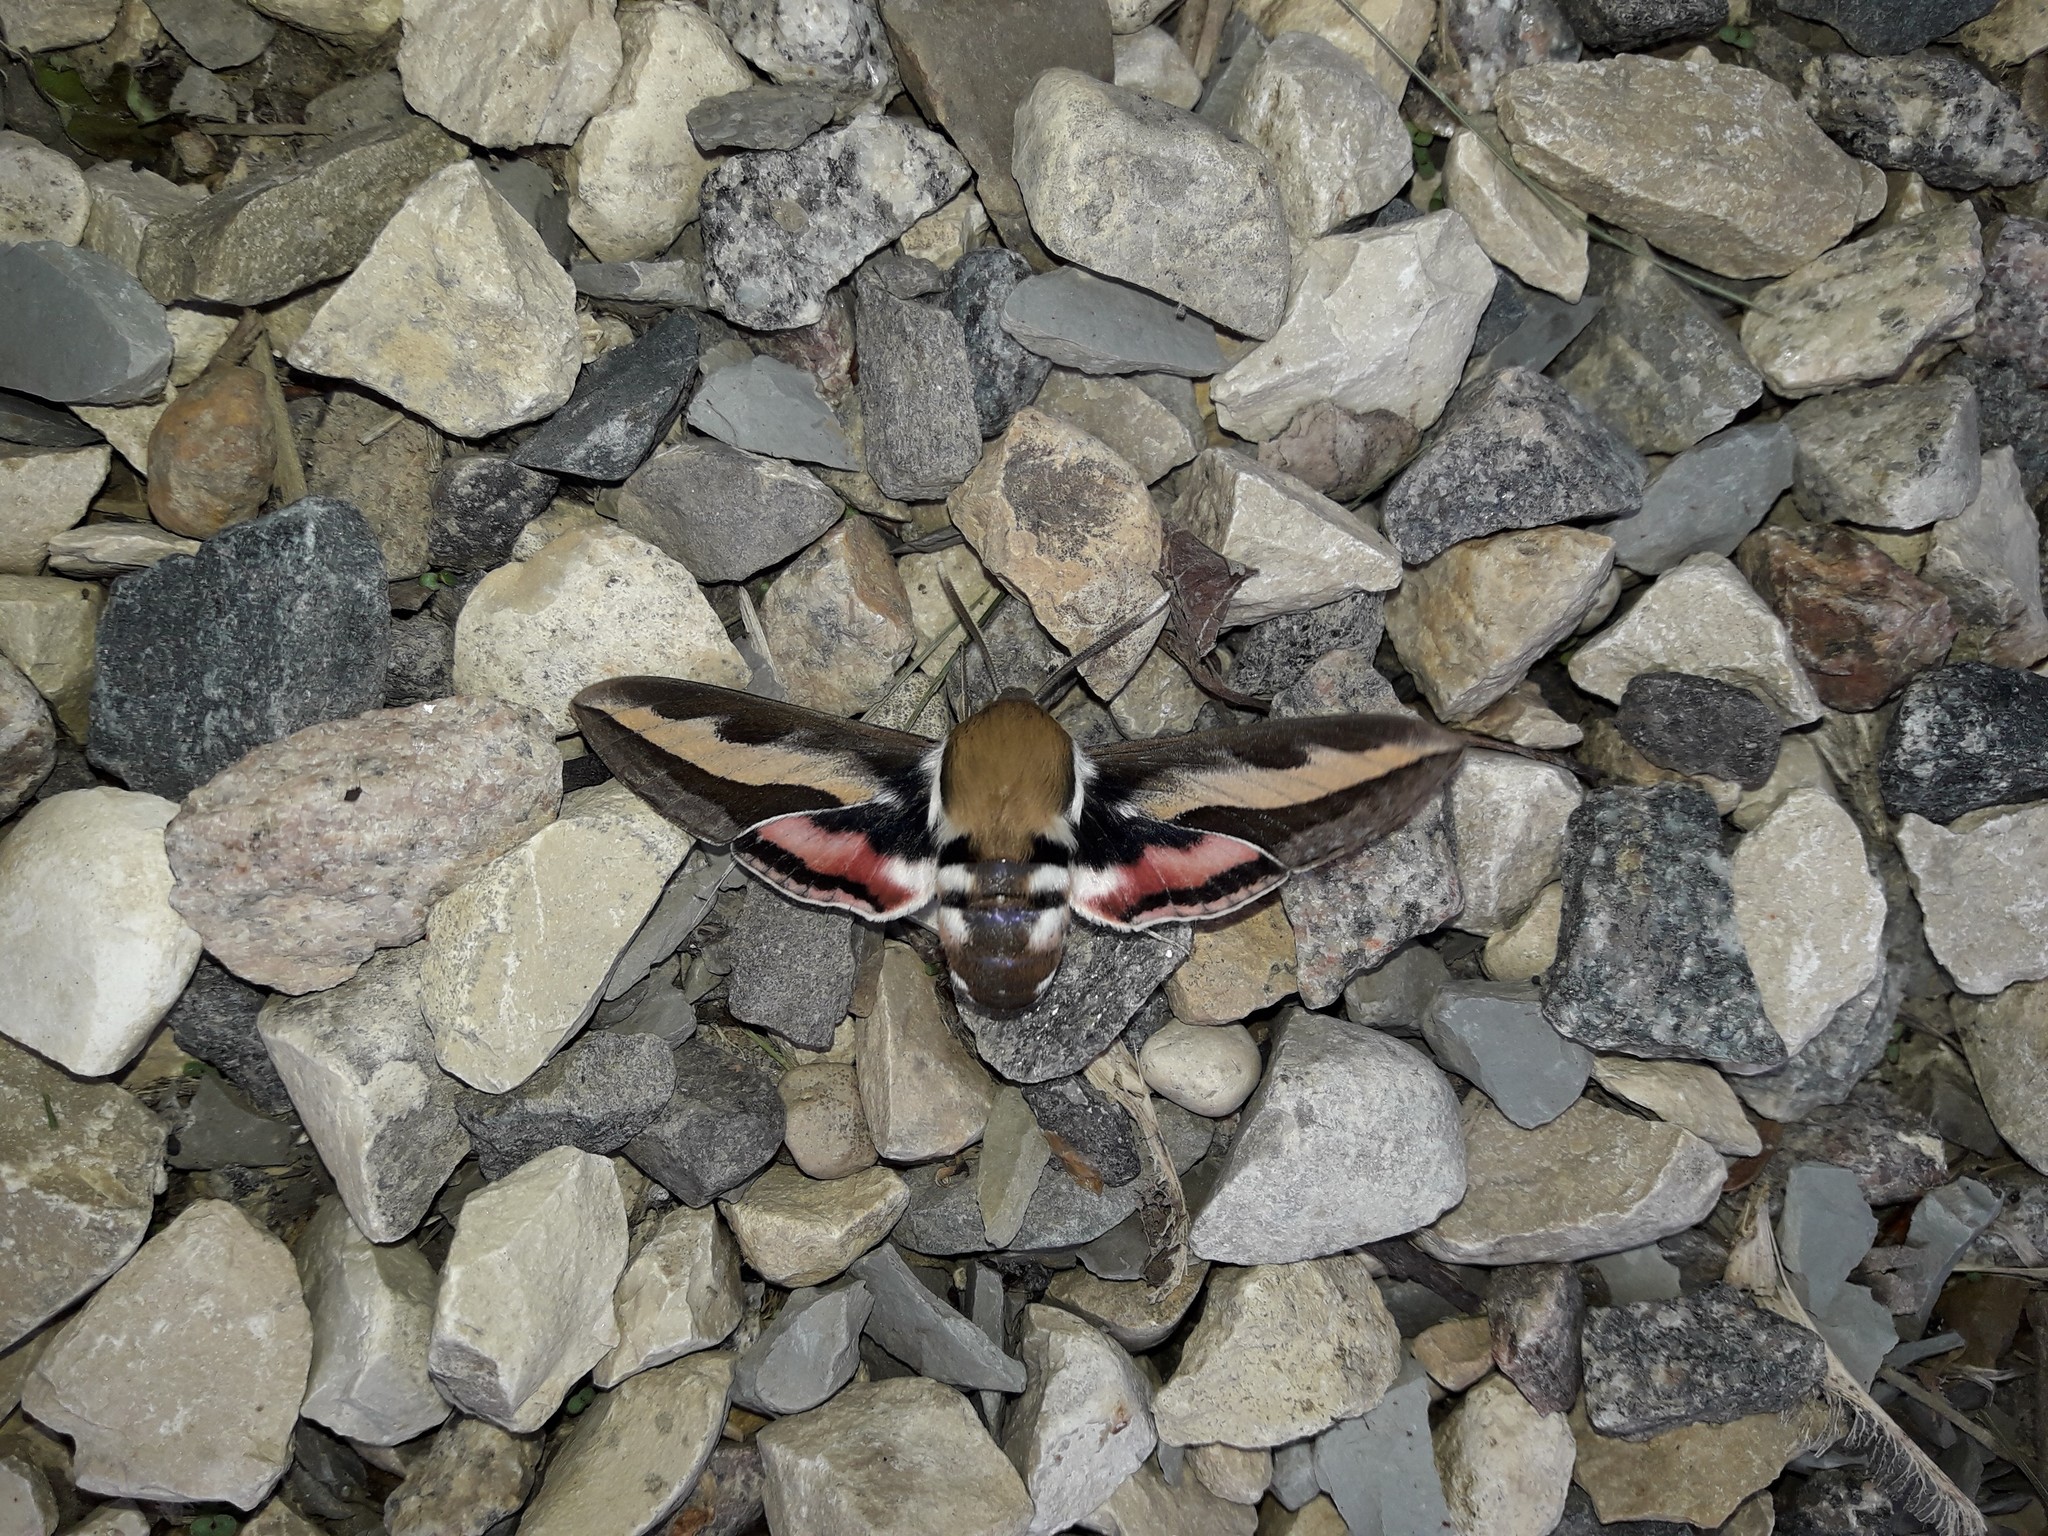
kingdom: Animalia
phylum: Arthropoda
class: Insecta
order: Lepidoptera
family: Sphingidae
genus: Hyles
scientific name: Hyles gallii
